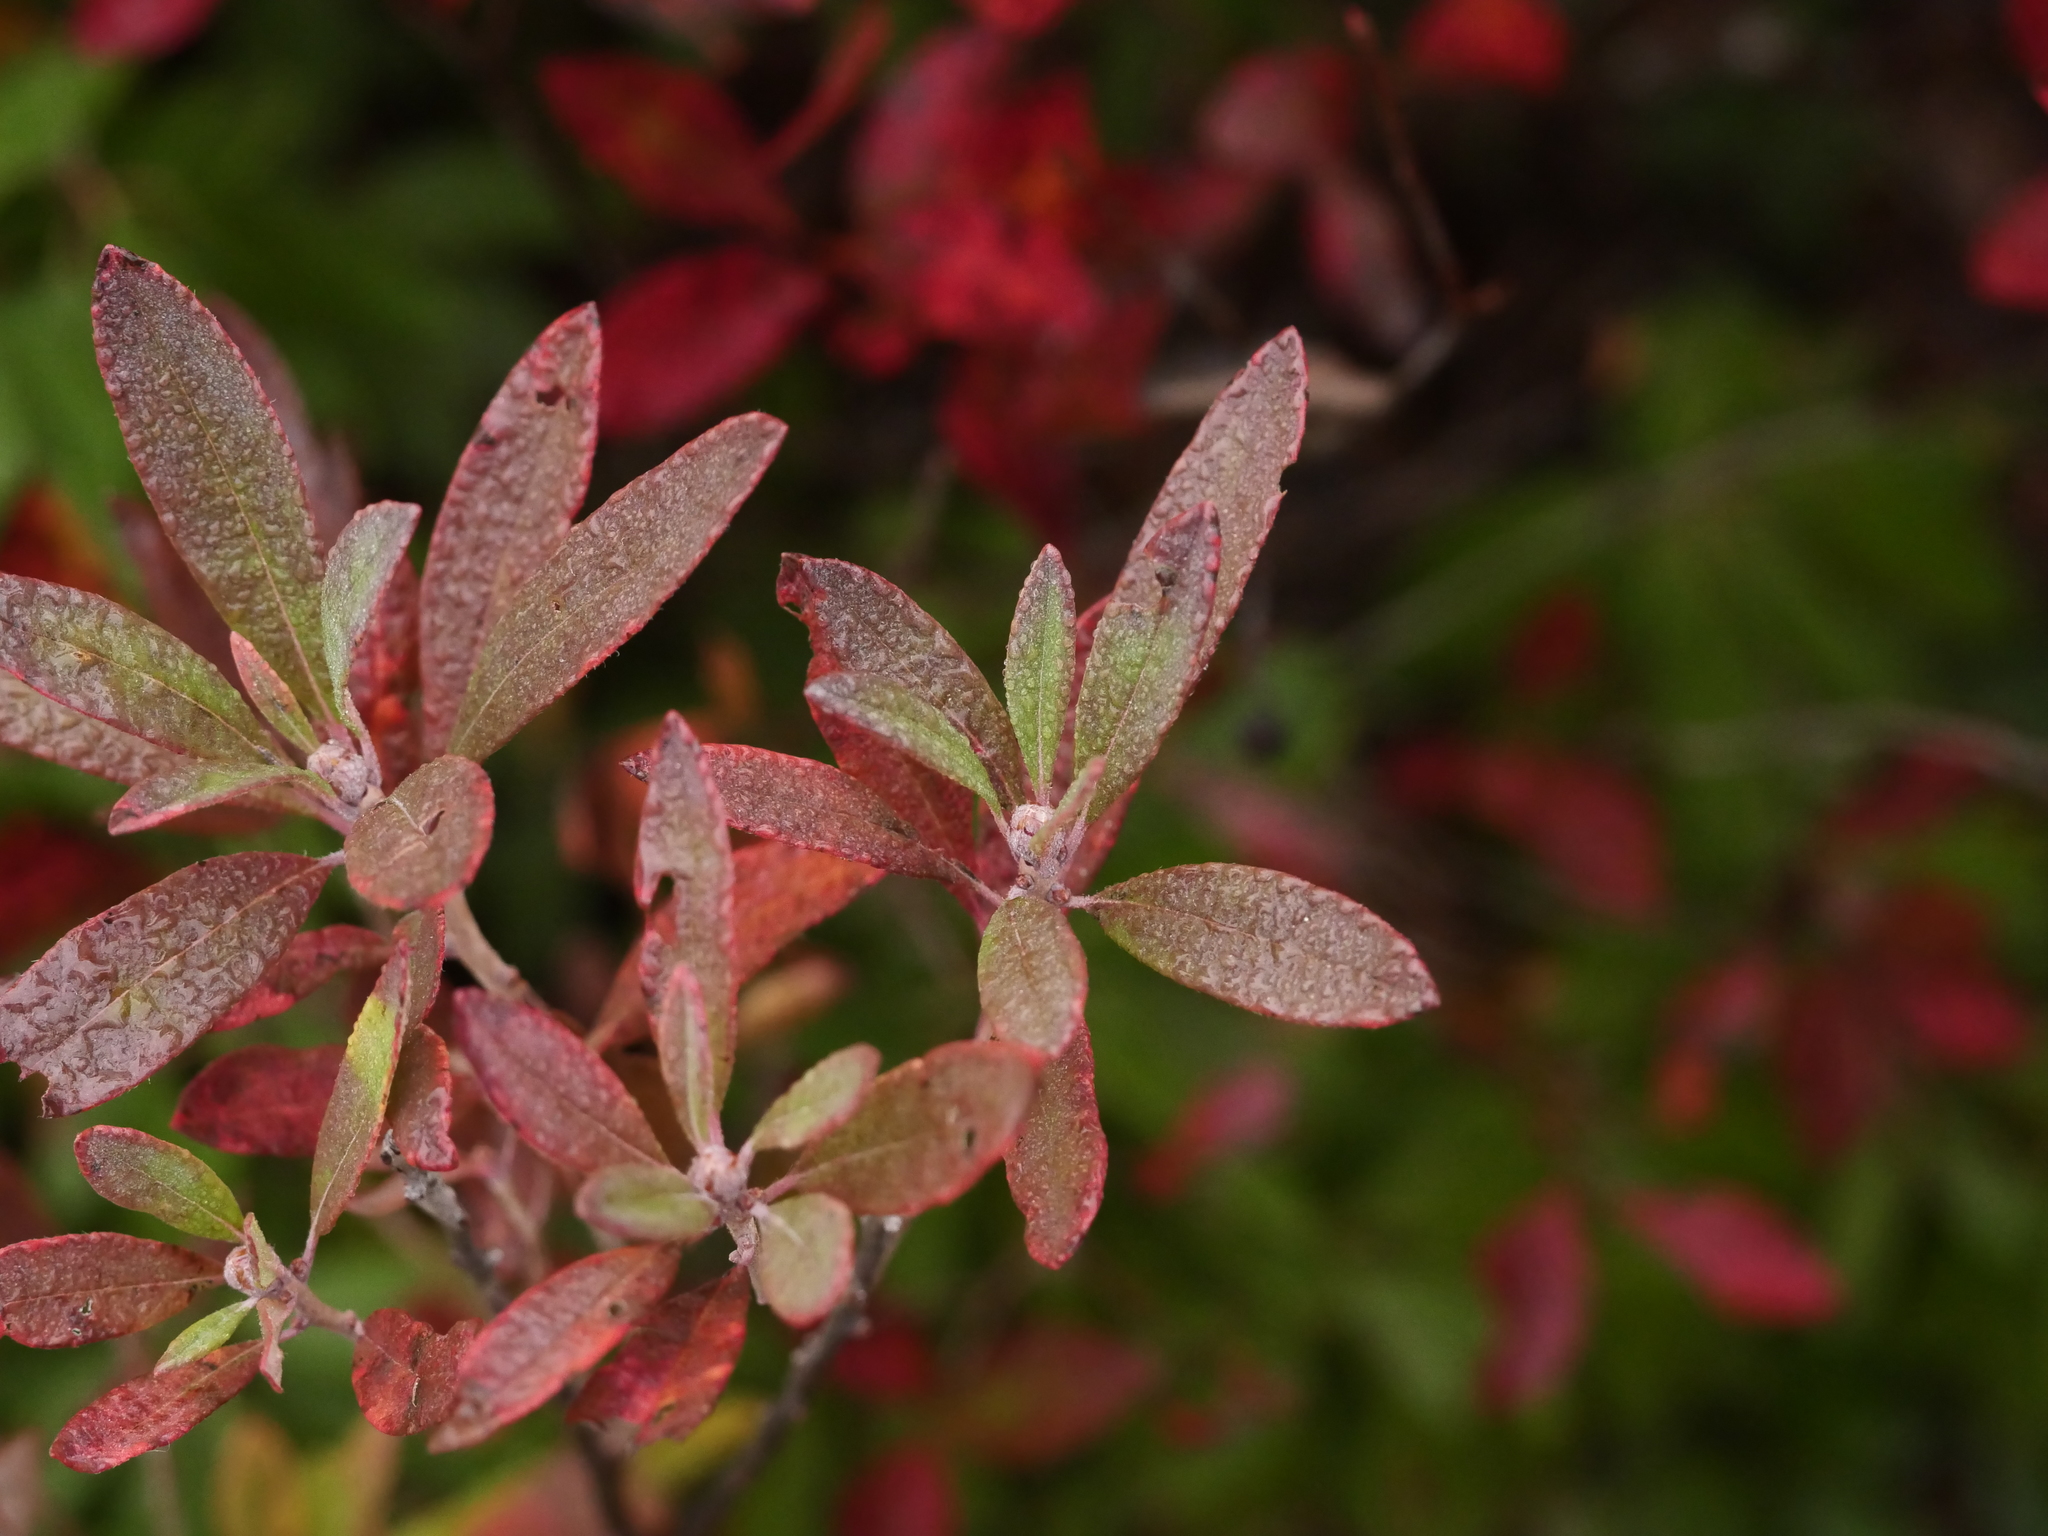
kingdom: Plantae
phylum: Tracheophyta
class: Magnoliopsida
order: Ericales
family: Ericaceae
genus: Rhododendron
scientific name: Rhododendron canadense
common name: Rhodora
